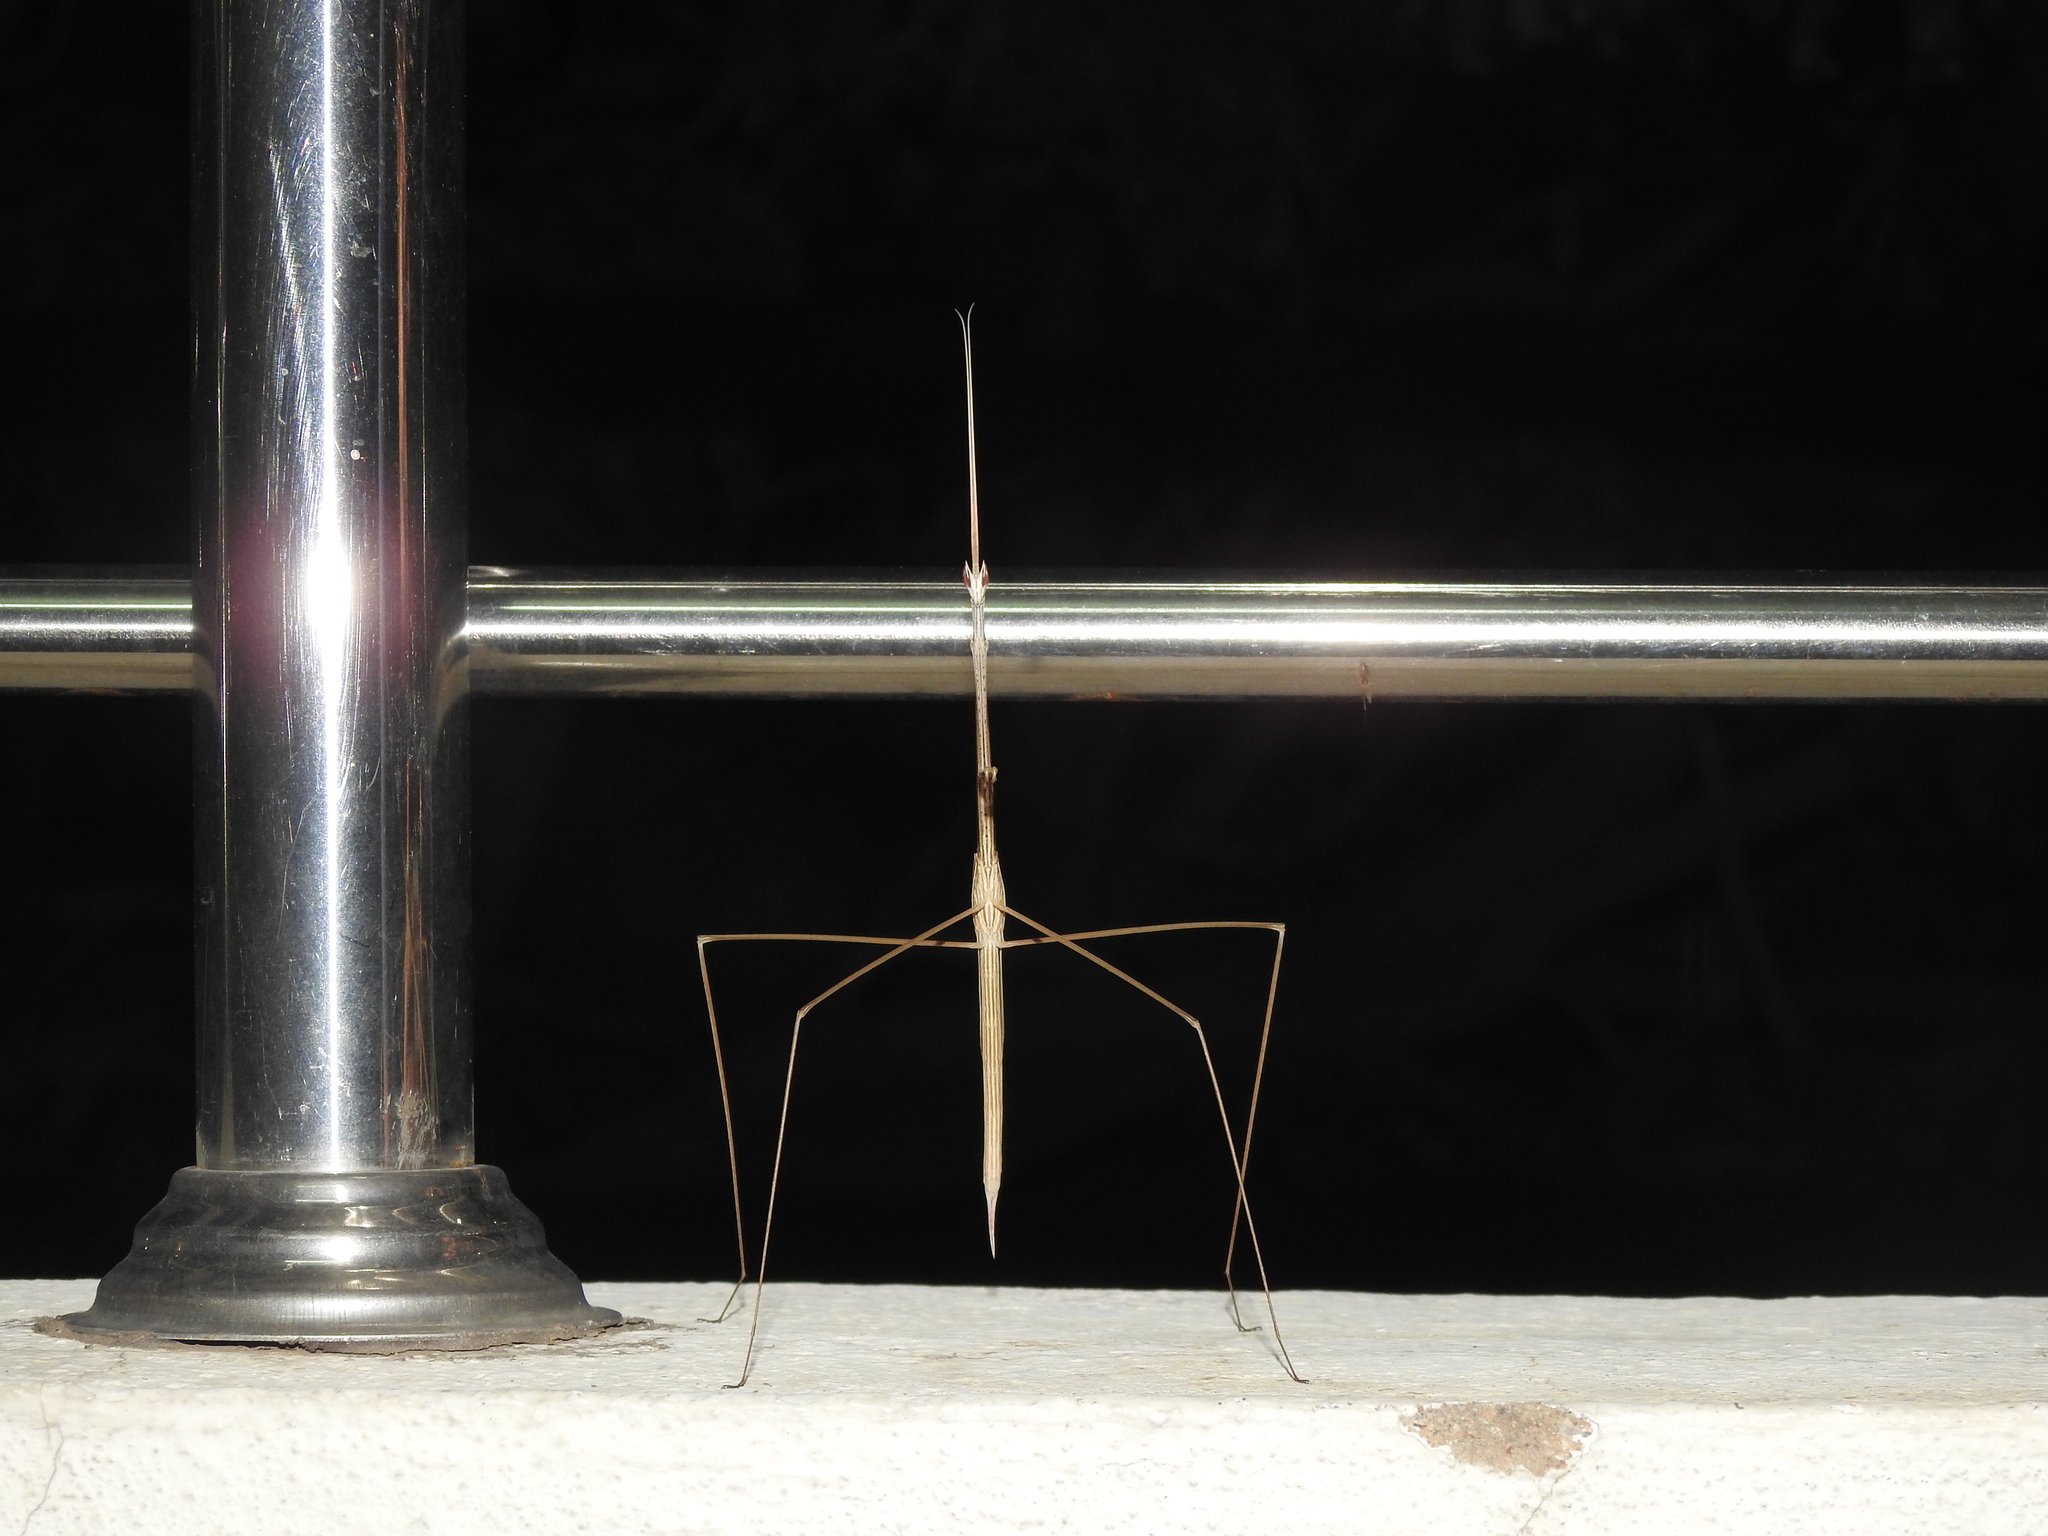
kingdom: Animalia
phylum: Arthropoda
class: Insecta
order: Mantodea
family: Eremiaphilidae
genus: Schizocephala
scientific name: Schizocephala bicornis
